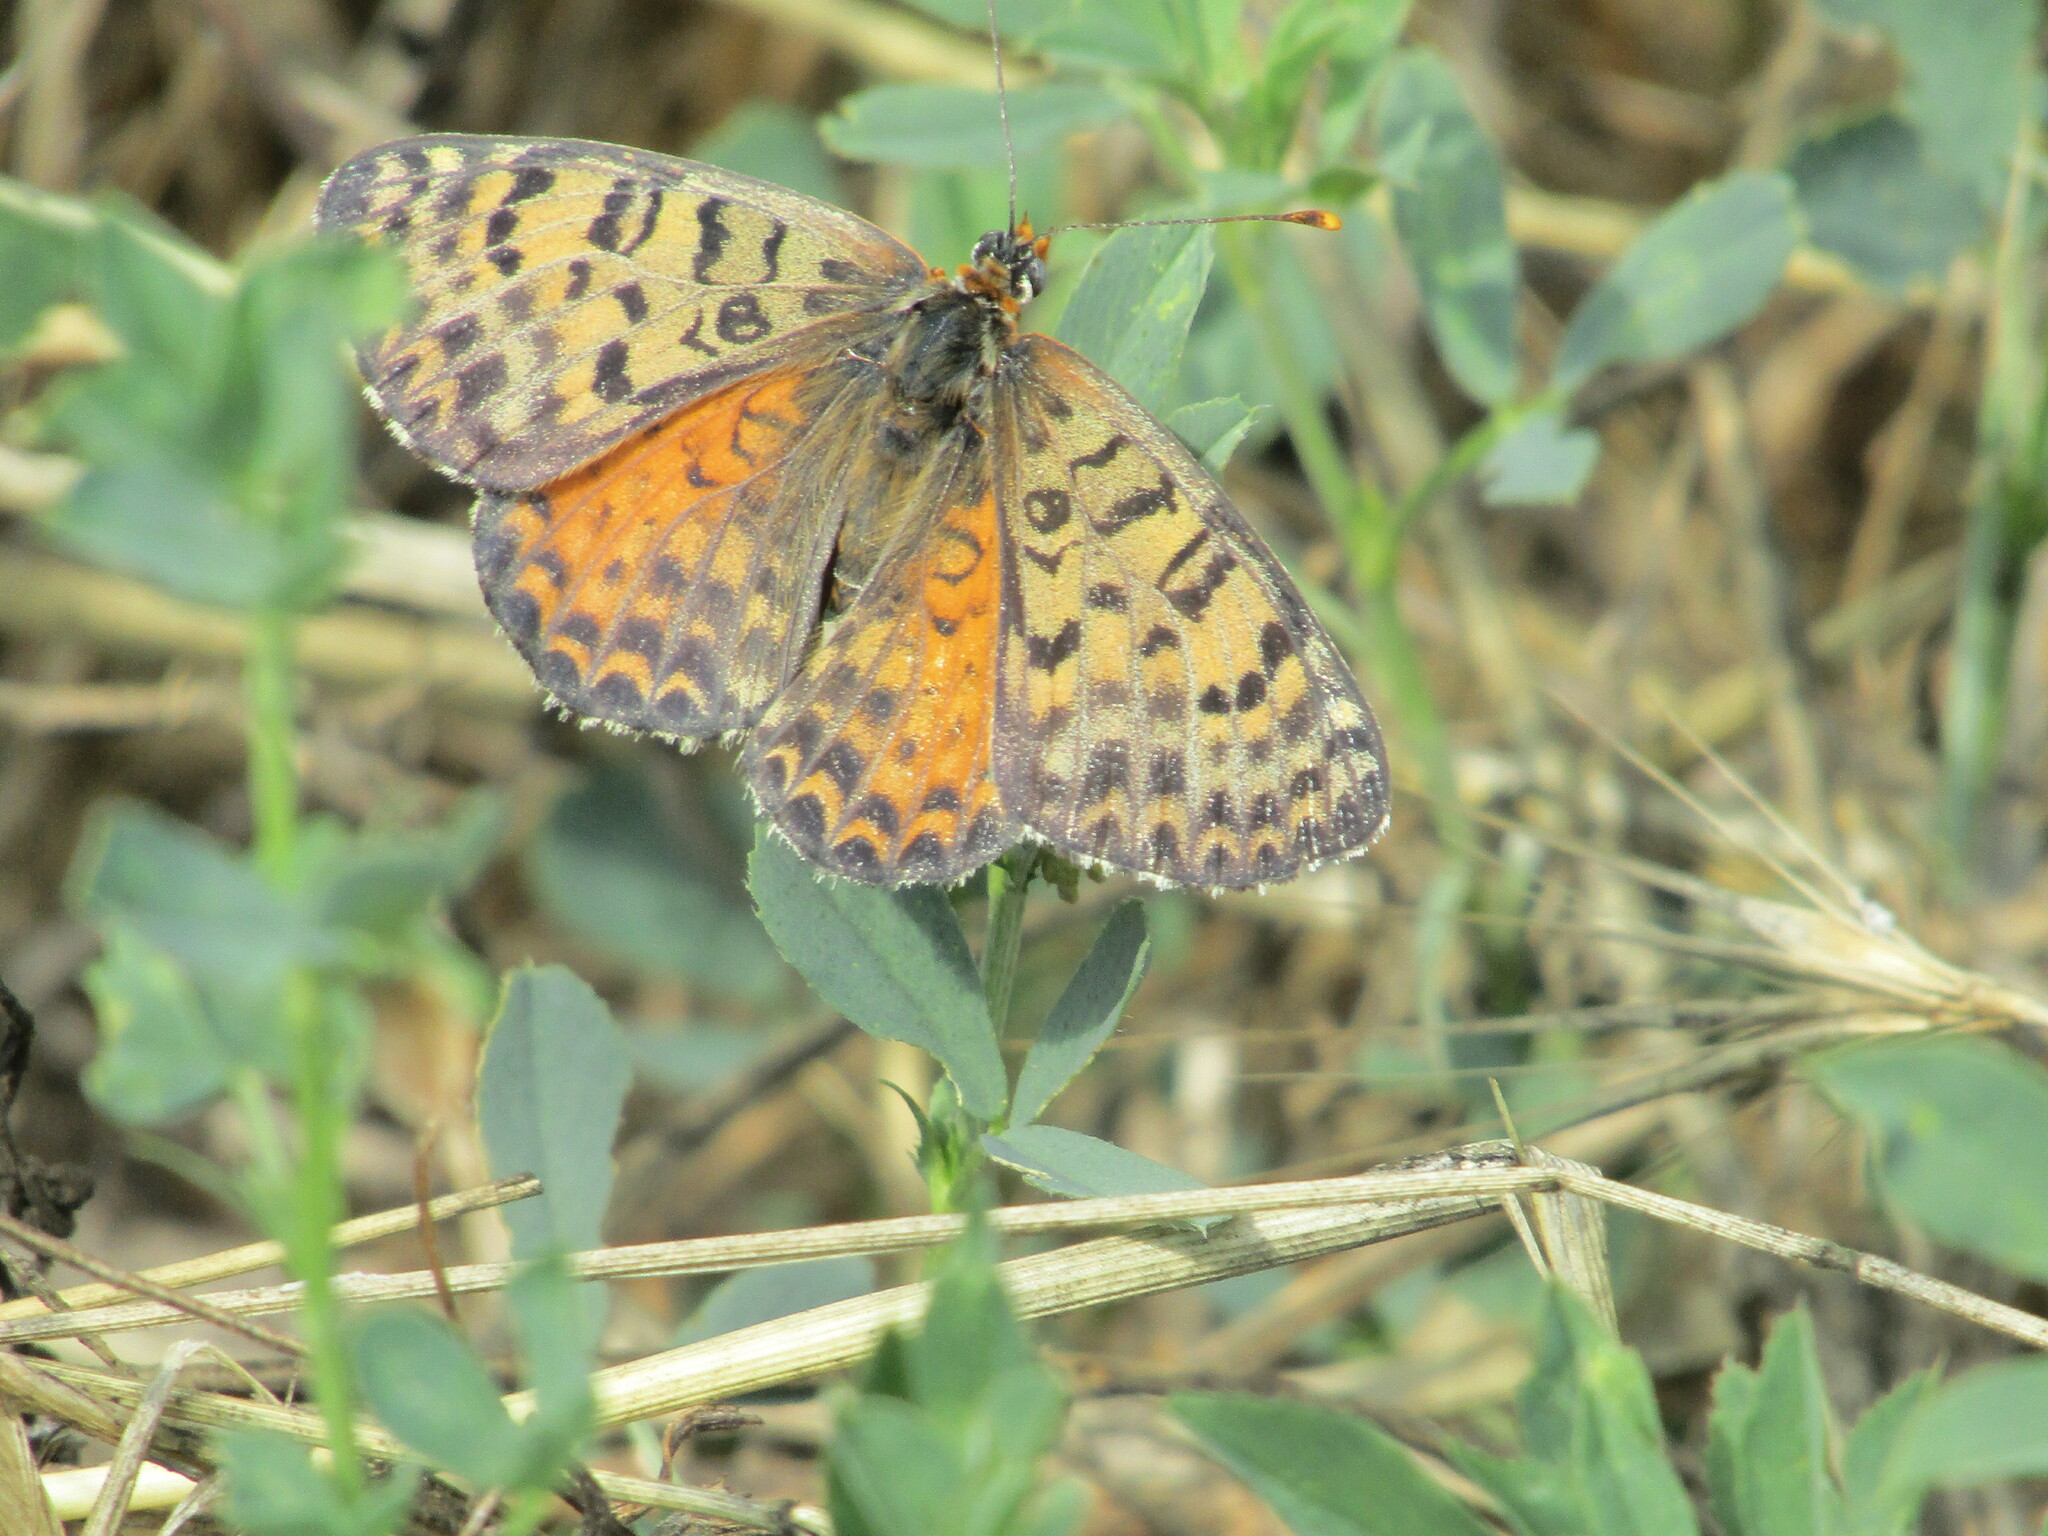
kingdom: Animalia
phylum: Arthropoda
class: Insecta
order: Lepidoptera
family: Nymphalidae
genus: Melitaea
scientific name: Melitaea didyma
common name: Spotted fritillary
